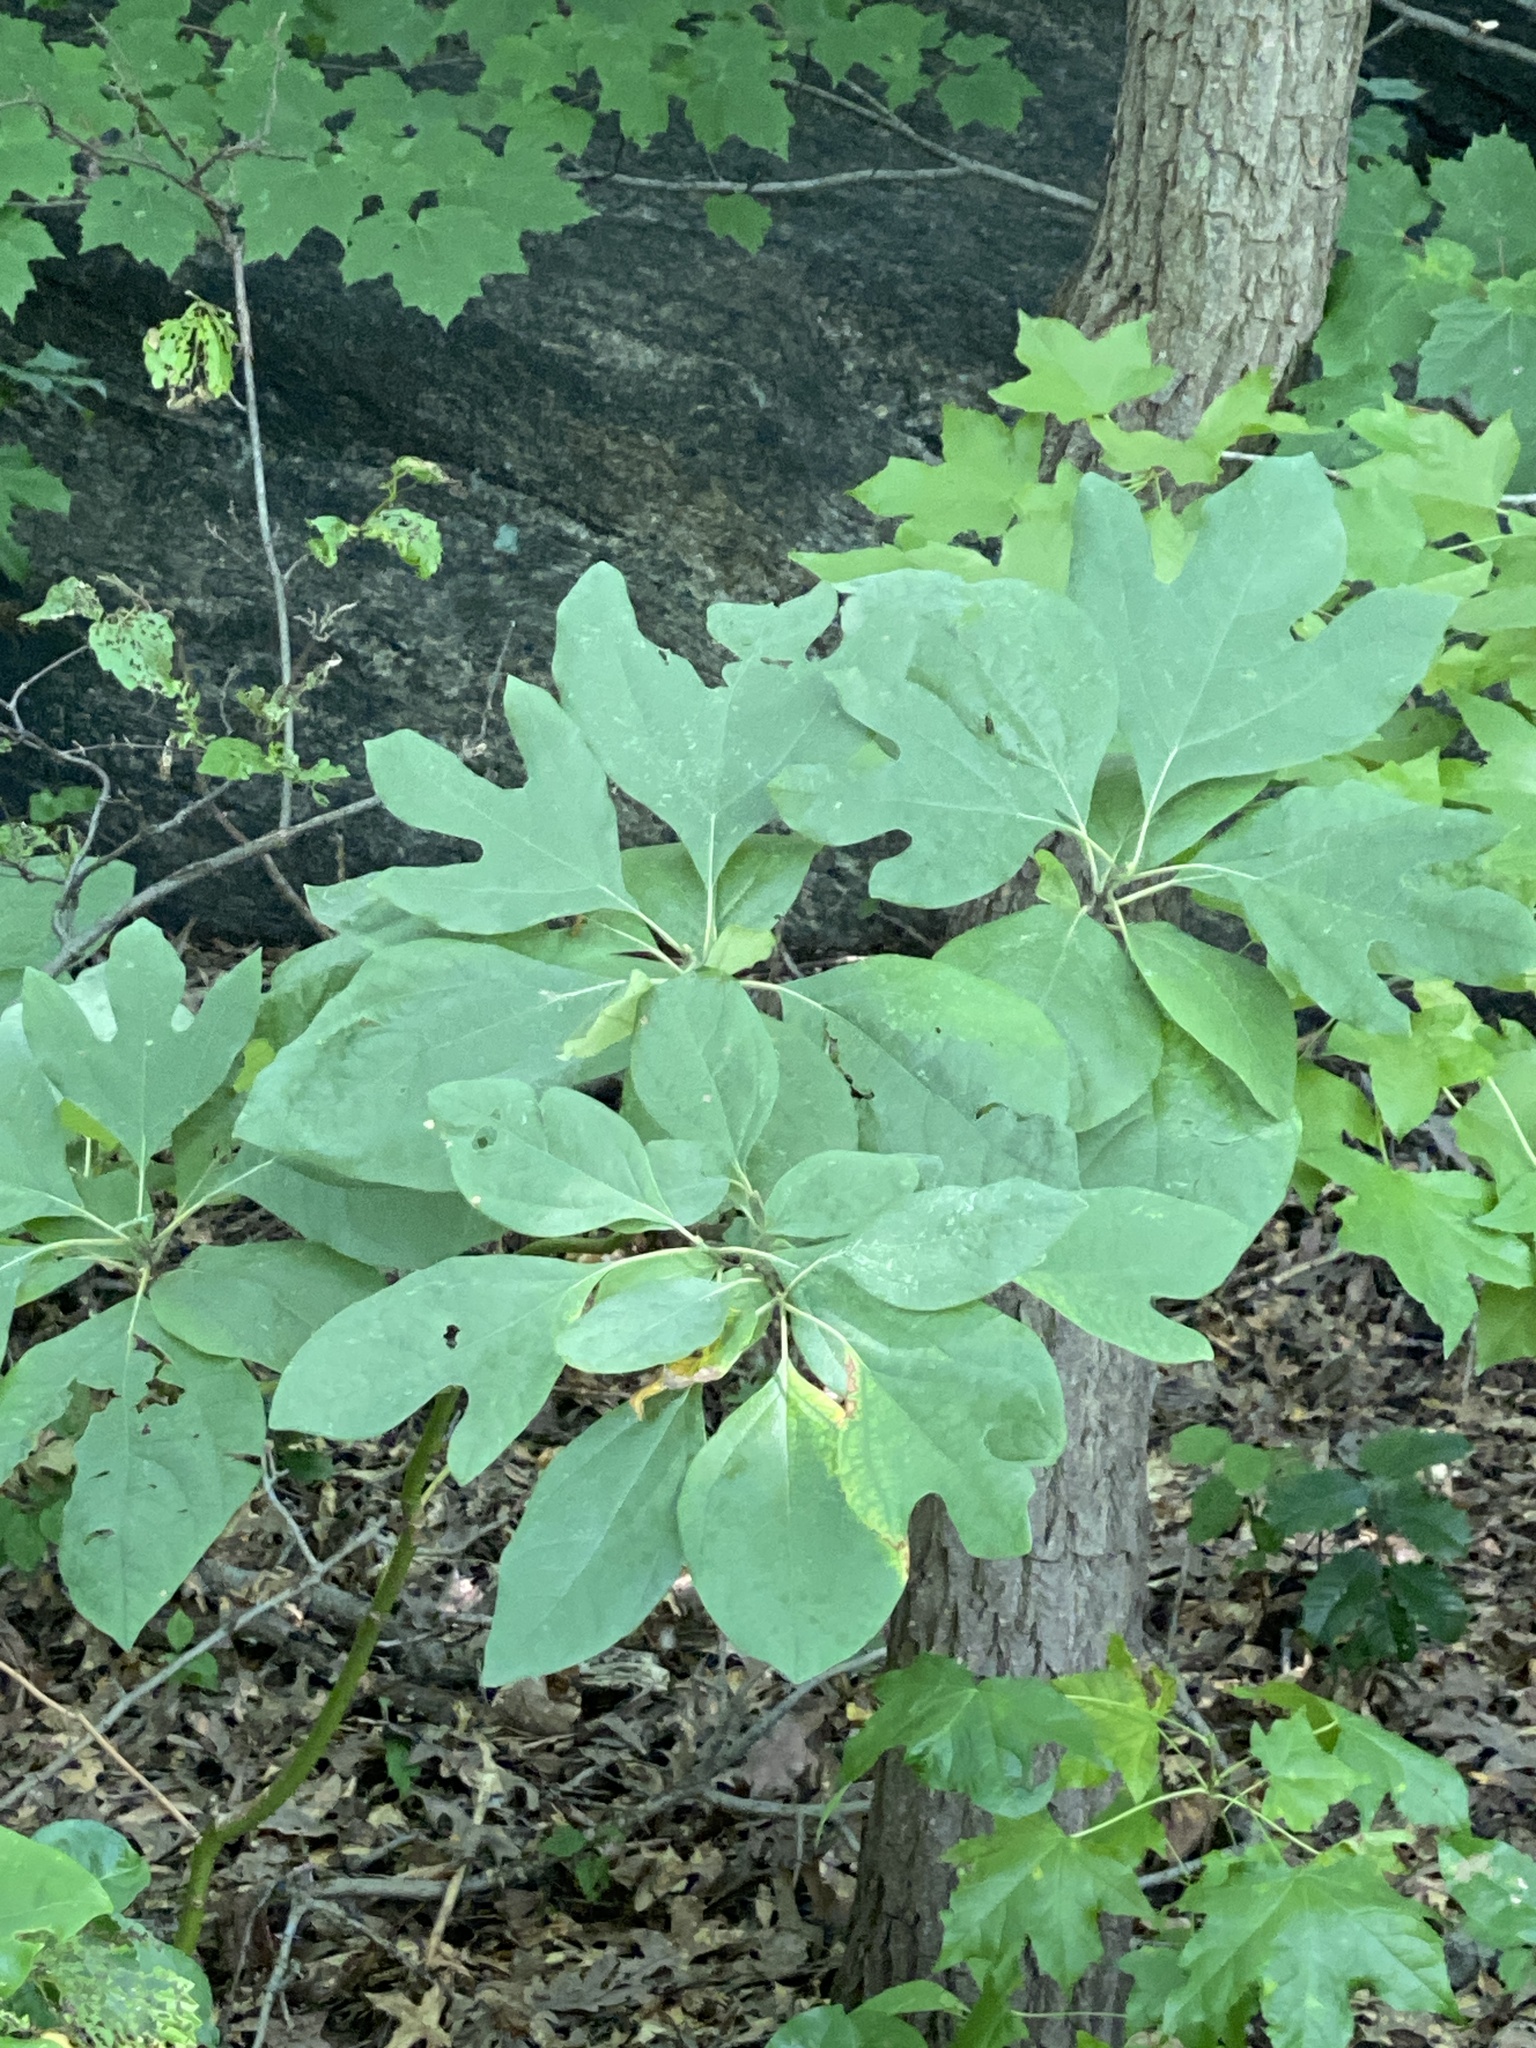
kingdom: Plantae
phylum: Tracheophyta
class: Magnoliopsida
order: Laurales
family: Lauraceae
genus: Sassafras
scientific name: Sassafras albidum
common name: Sassafras
